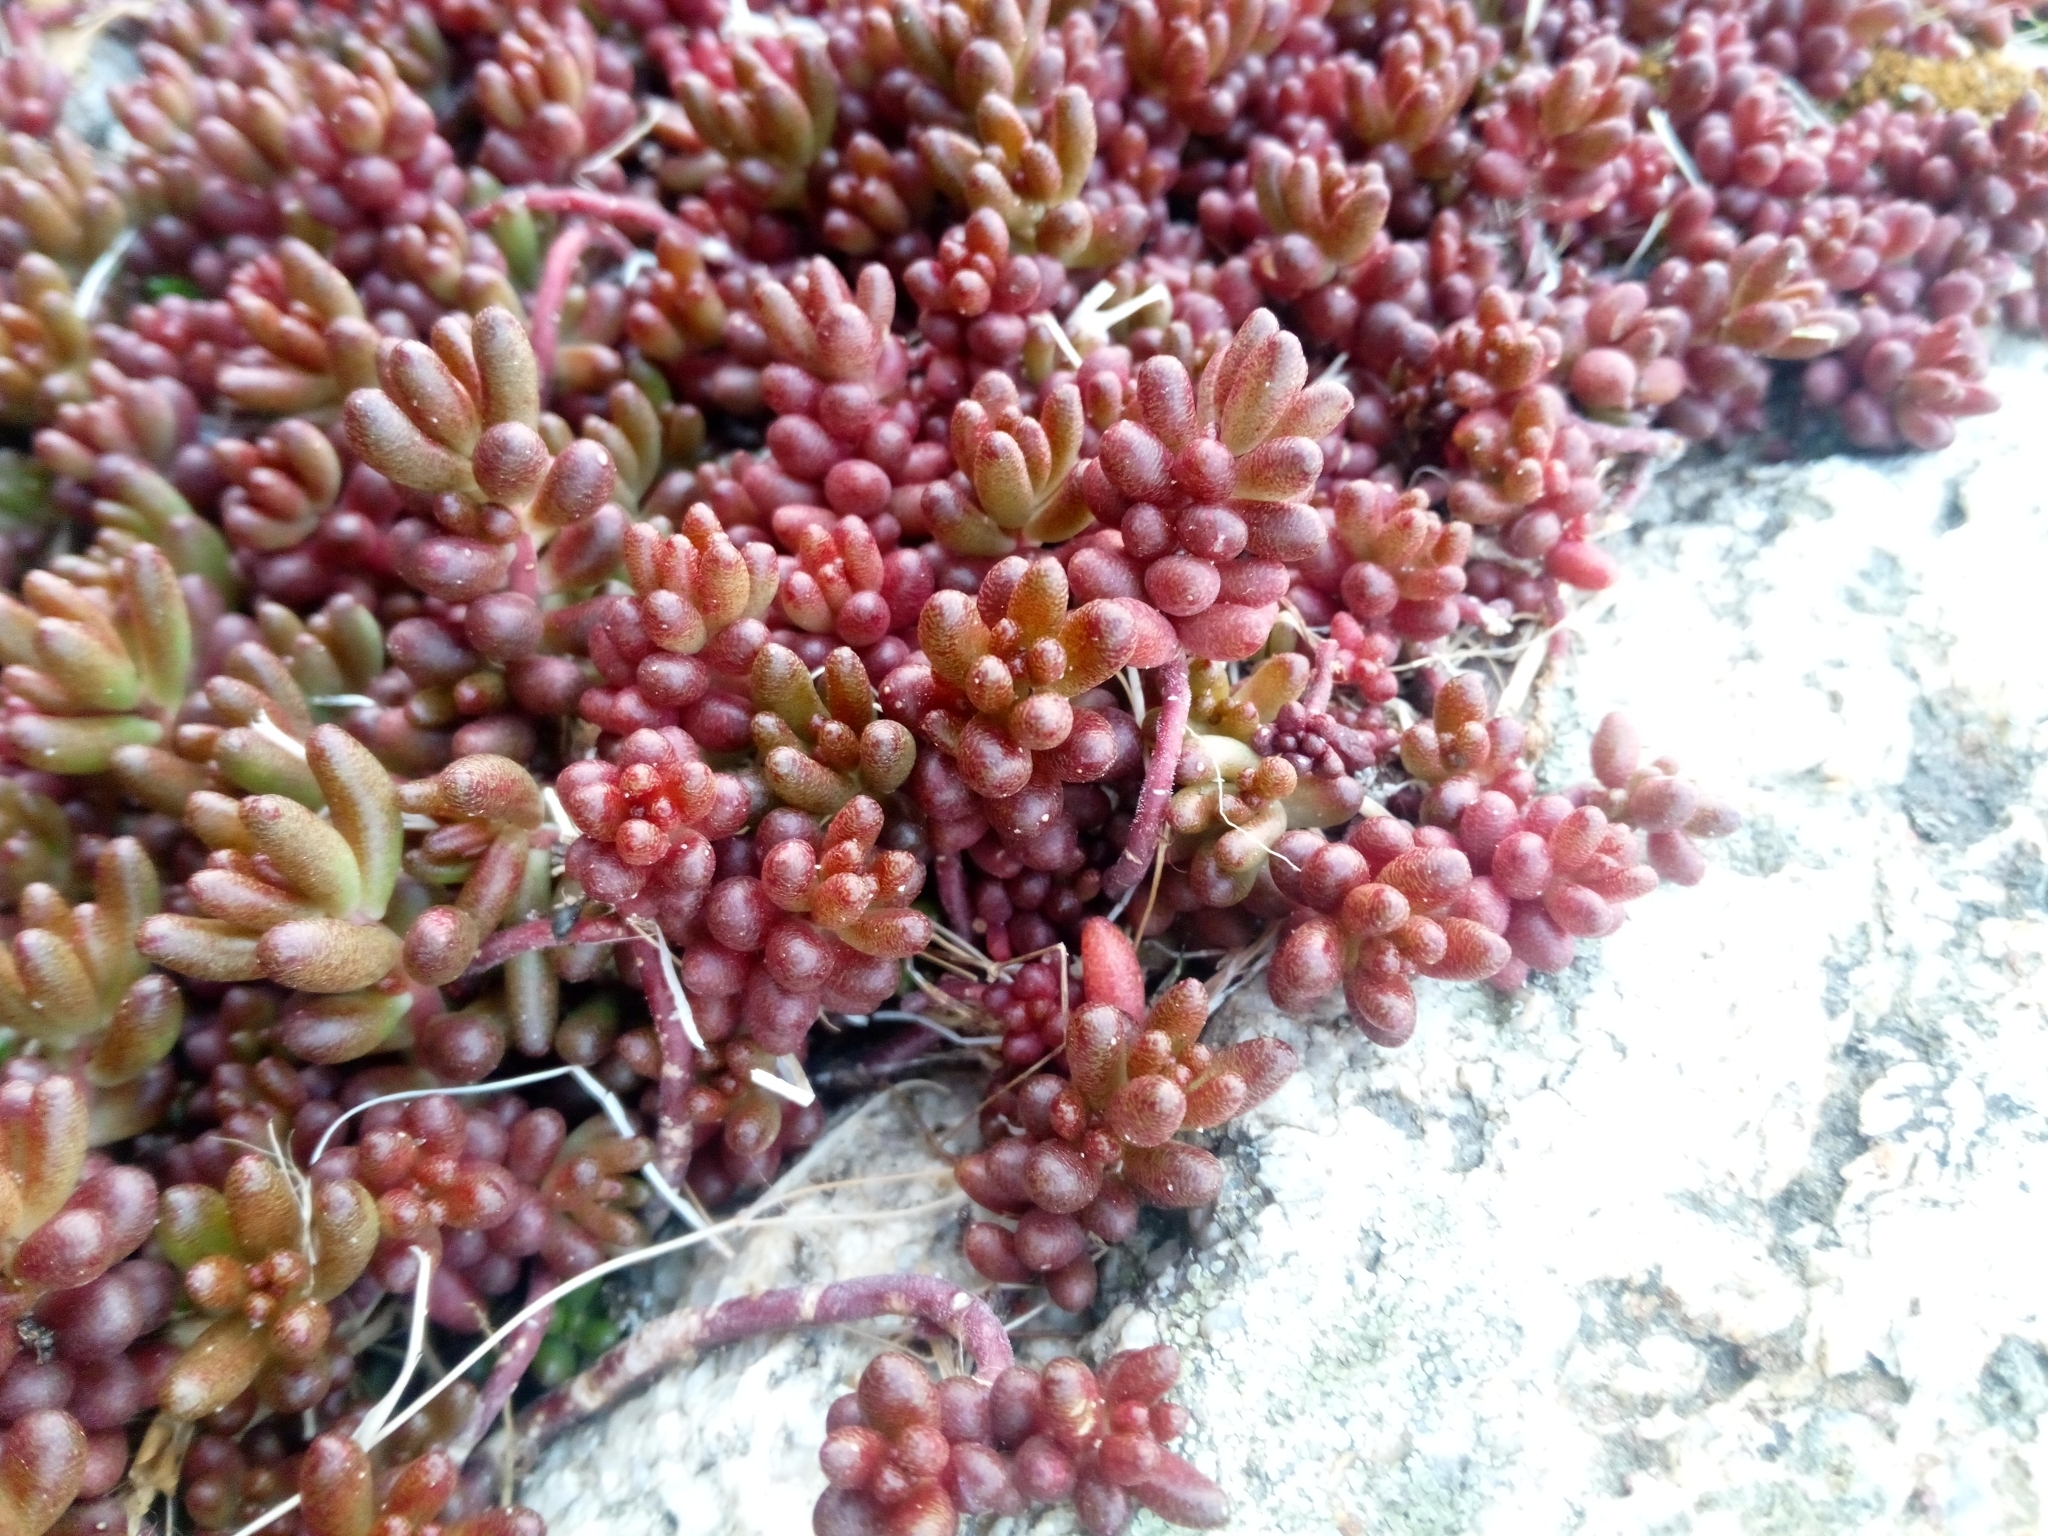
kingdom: Plantae
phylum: Tracheophyta
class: Magnoliopsida
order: Saxifragales
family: Crassulaceae
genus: Sedum
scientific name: Sedum album
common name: White stonecrop
